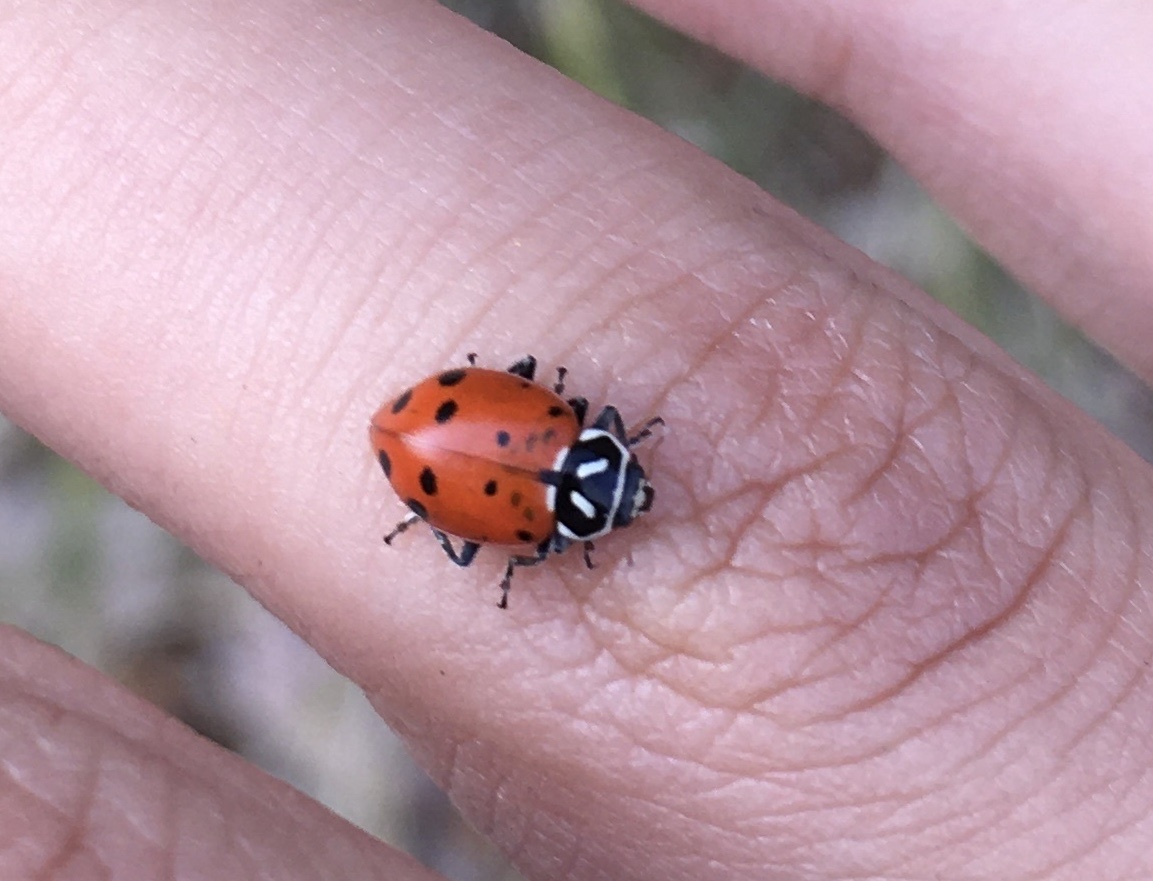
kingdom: Animalia
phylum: Arthropoda
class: Insecta
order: Coleoptera
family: Coccinellidae
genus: Hippodamia
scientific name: Hippodamia convergens
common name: Convergent lady beetle
